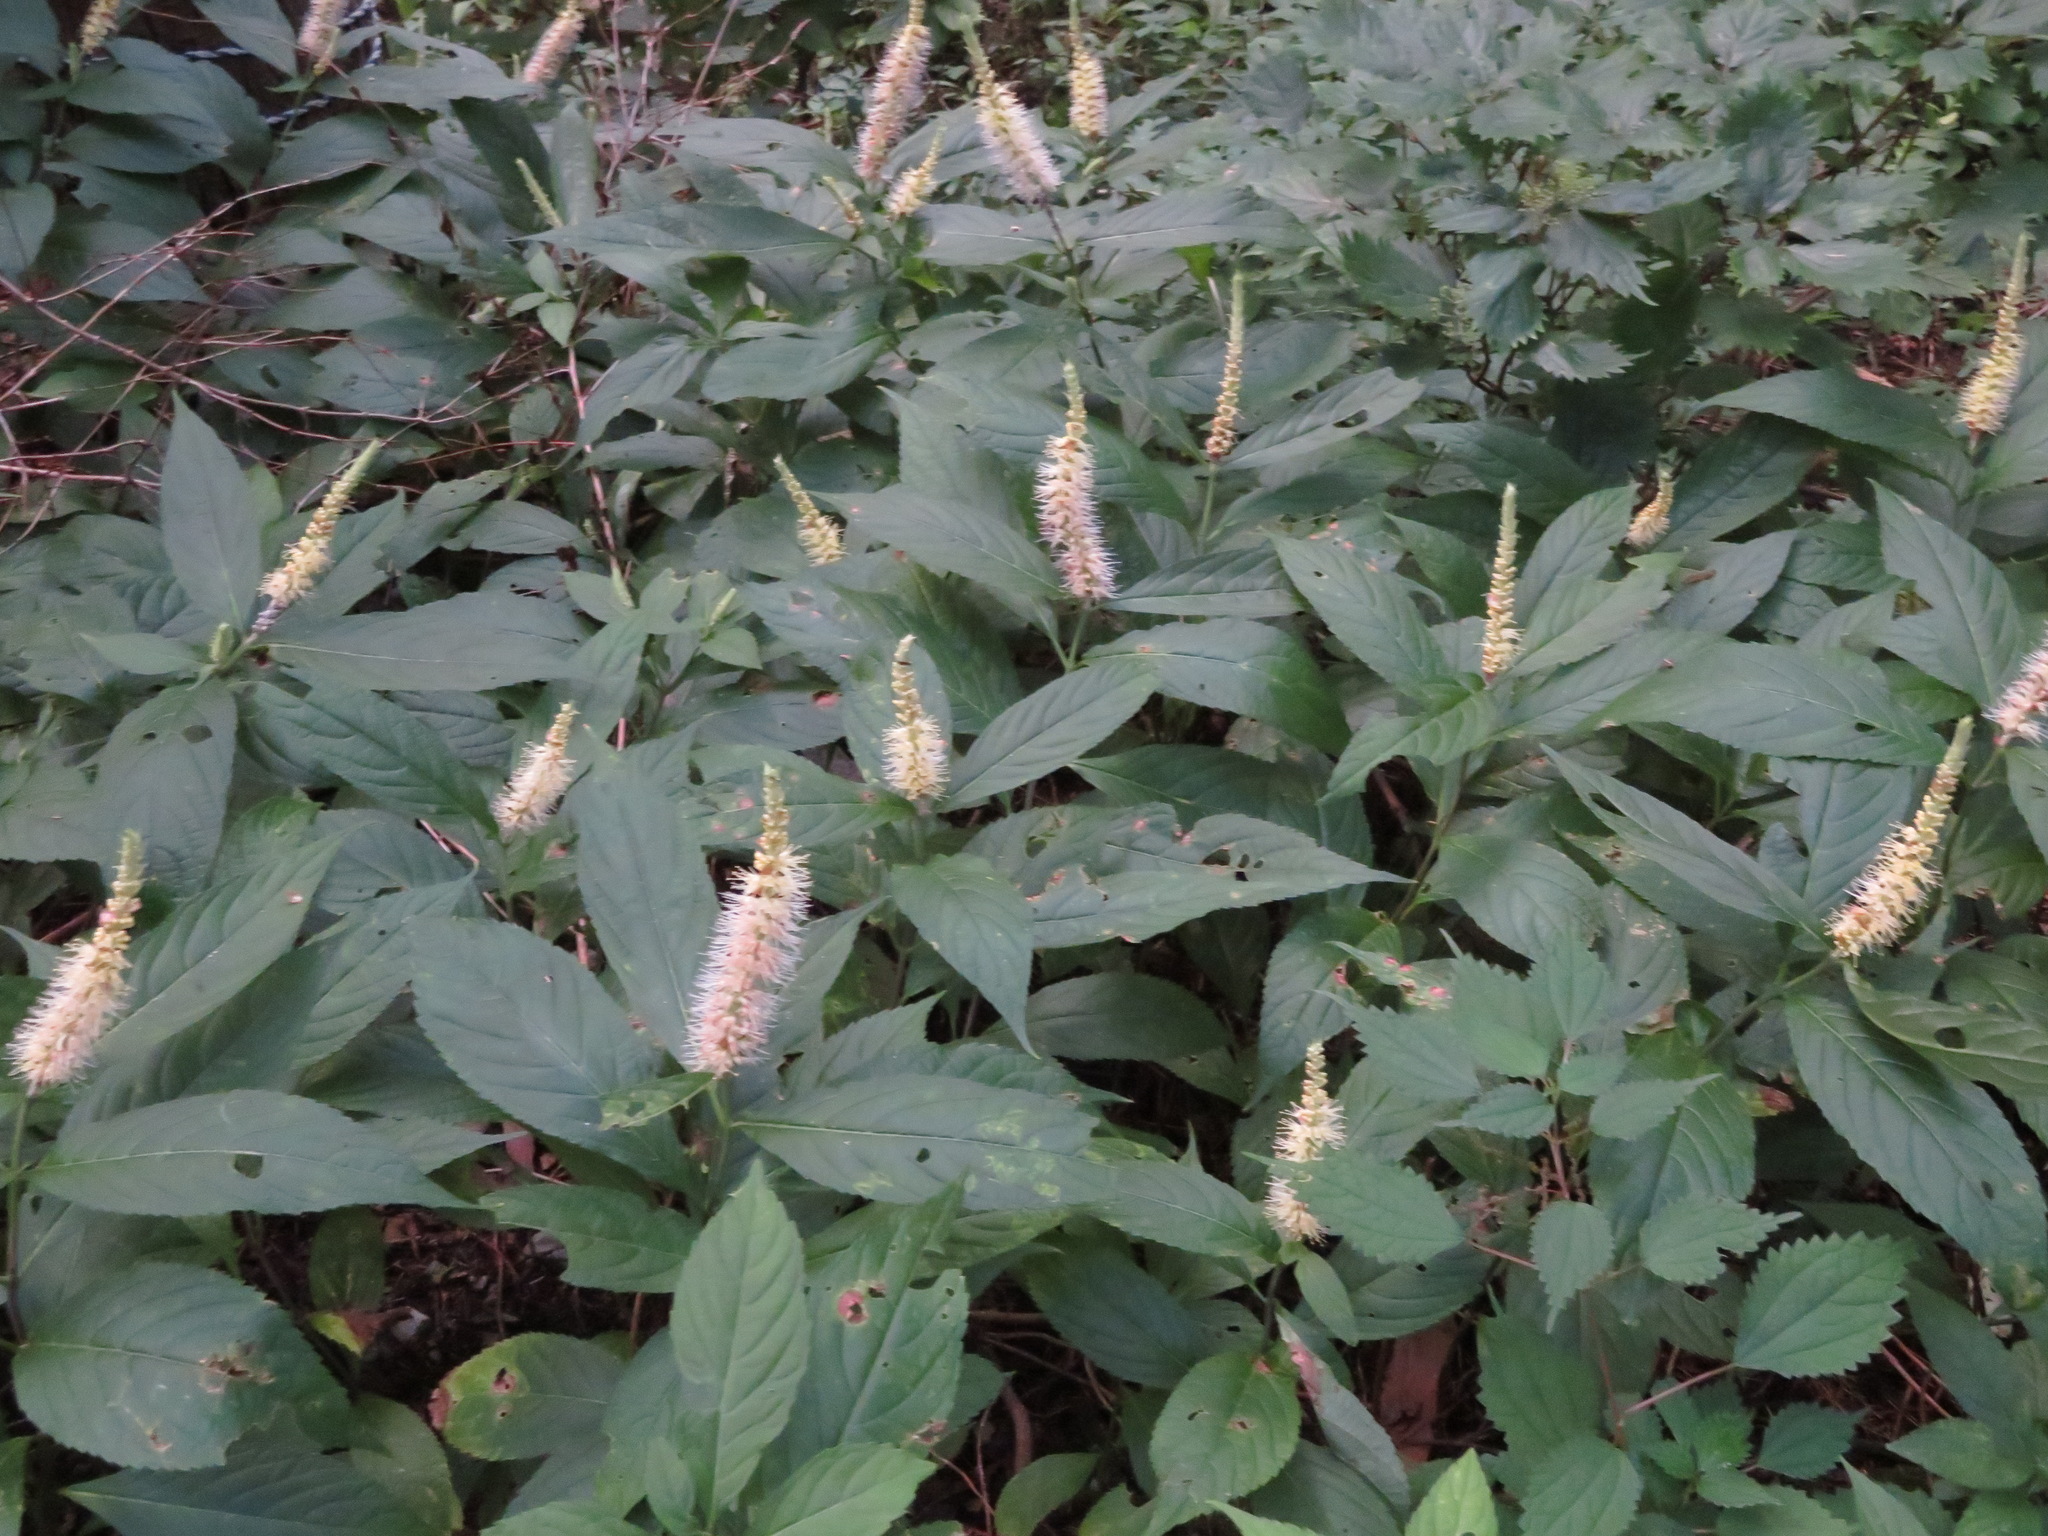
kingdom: Plantae
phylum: Tracheophyta
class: Magnoliopsida
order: Lamiales
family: Lamiaceae
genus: Comanthosphace
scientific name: Comanthosphace japonica
